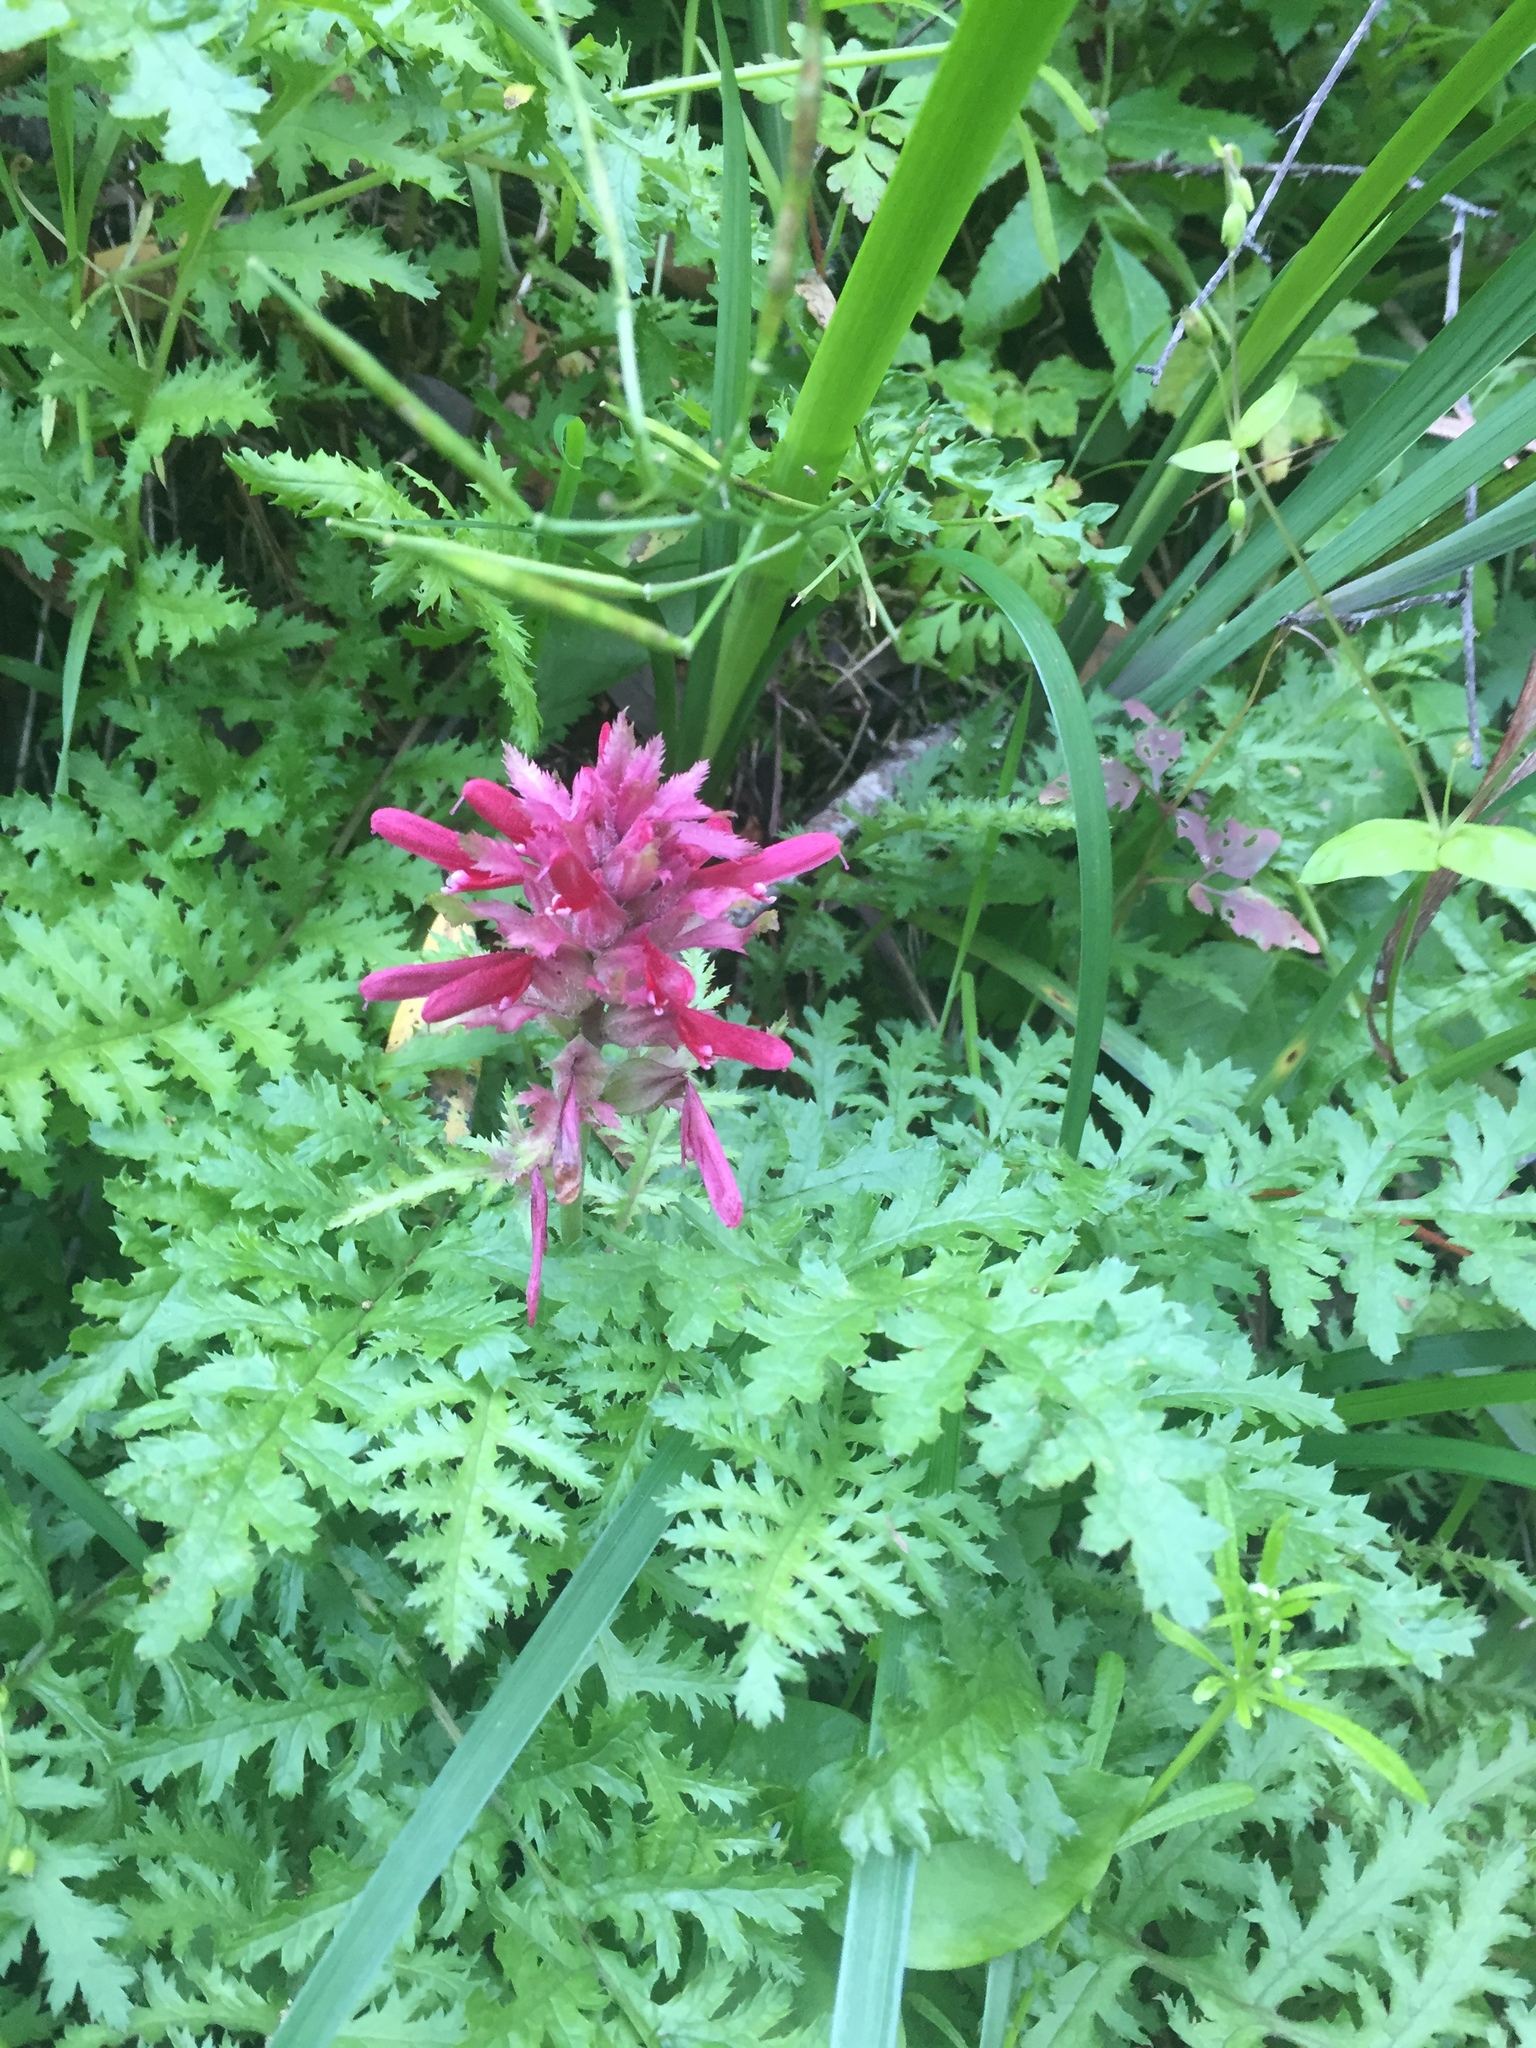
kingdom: Plantae
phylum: Tracheophyta
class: Magnoliopsida
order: Lamiales
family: Orobanchaceae
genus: Pedicularis
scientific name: Pedicularis densiflora
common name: Indian warrior
